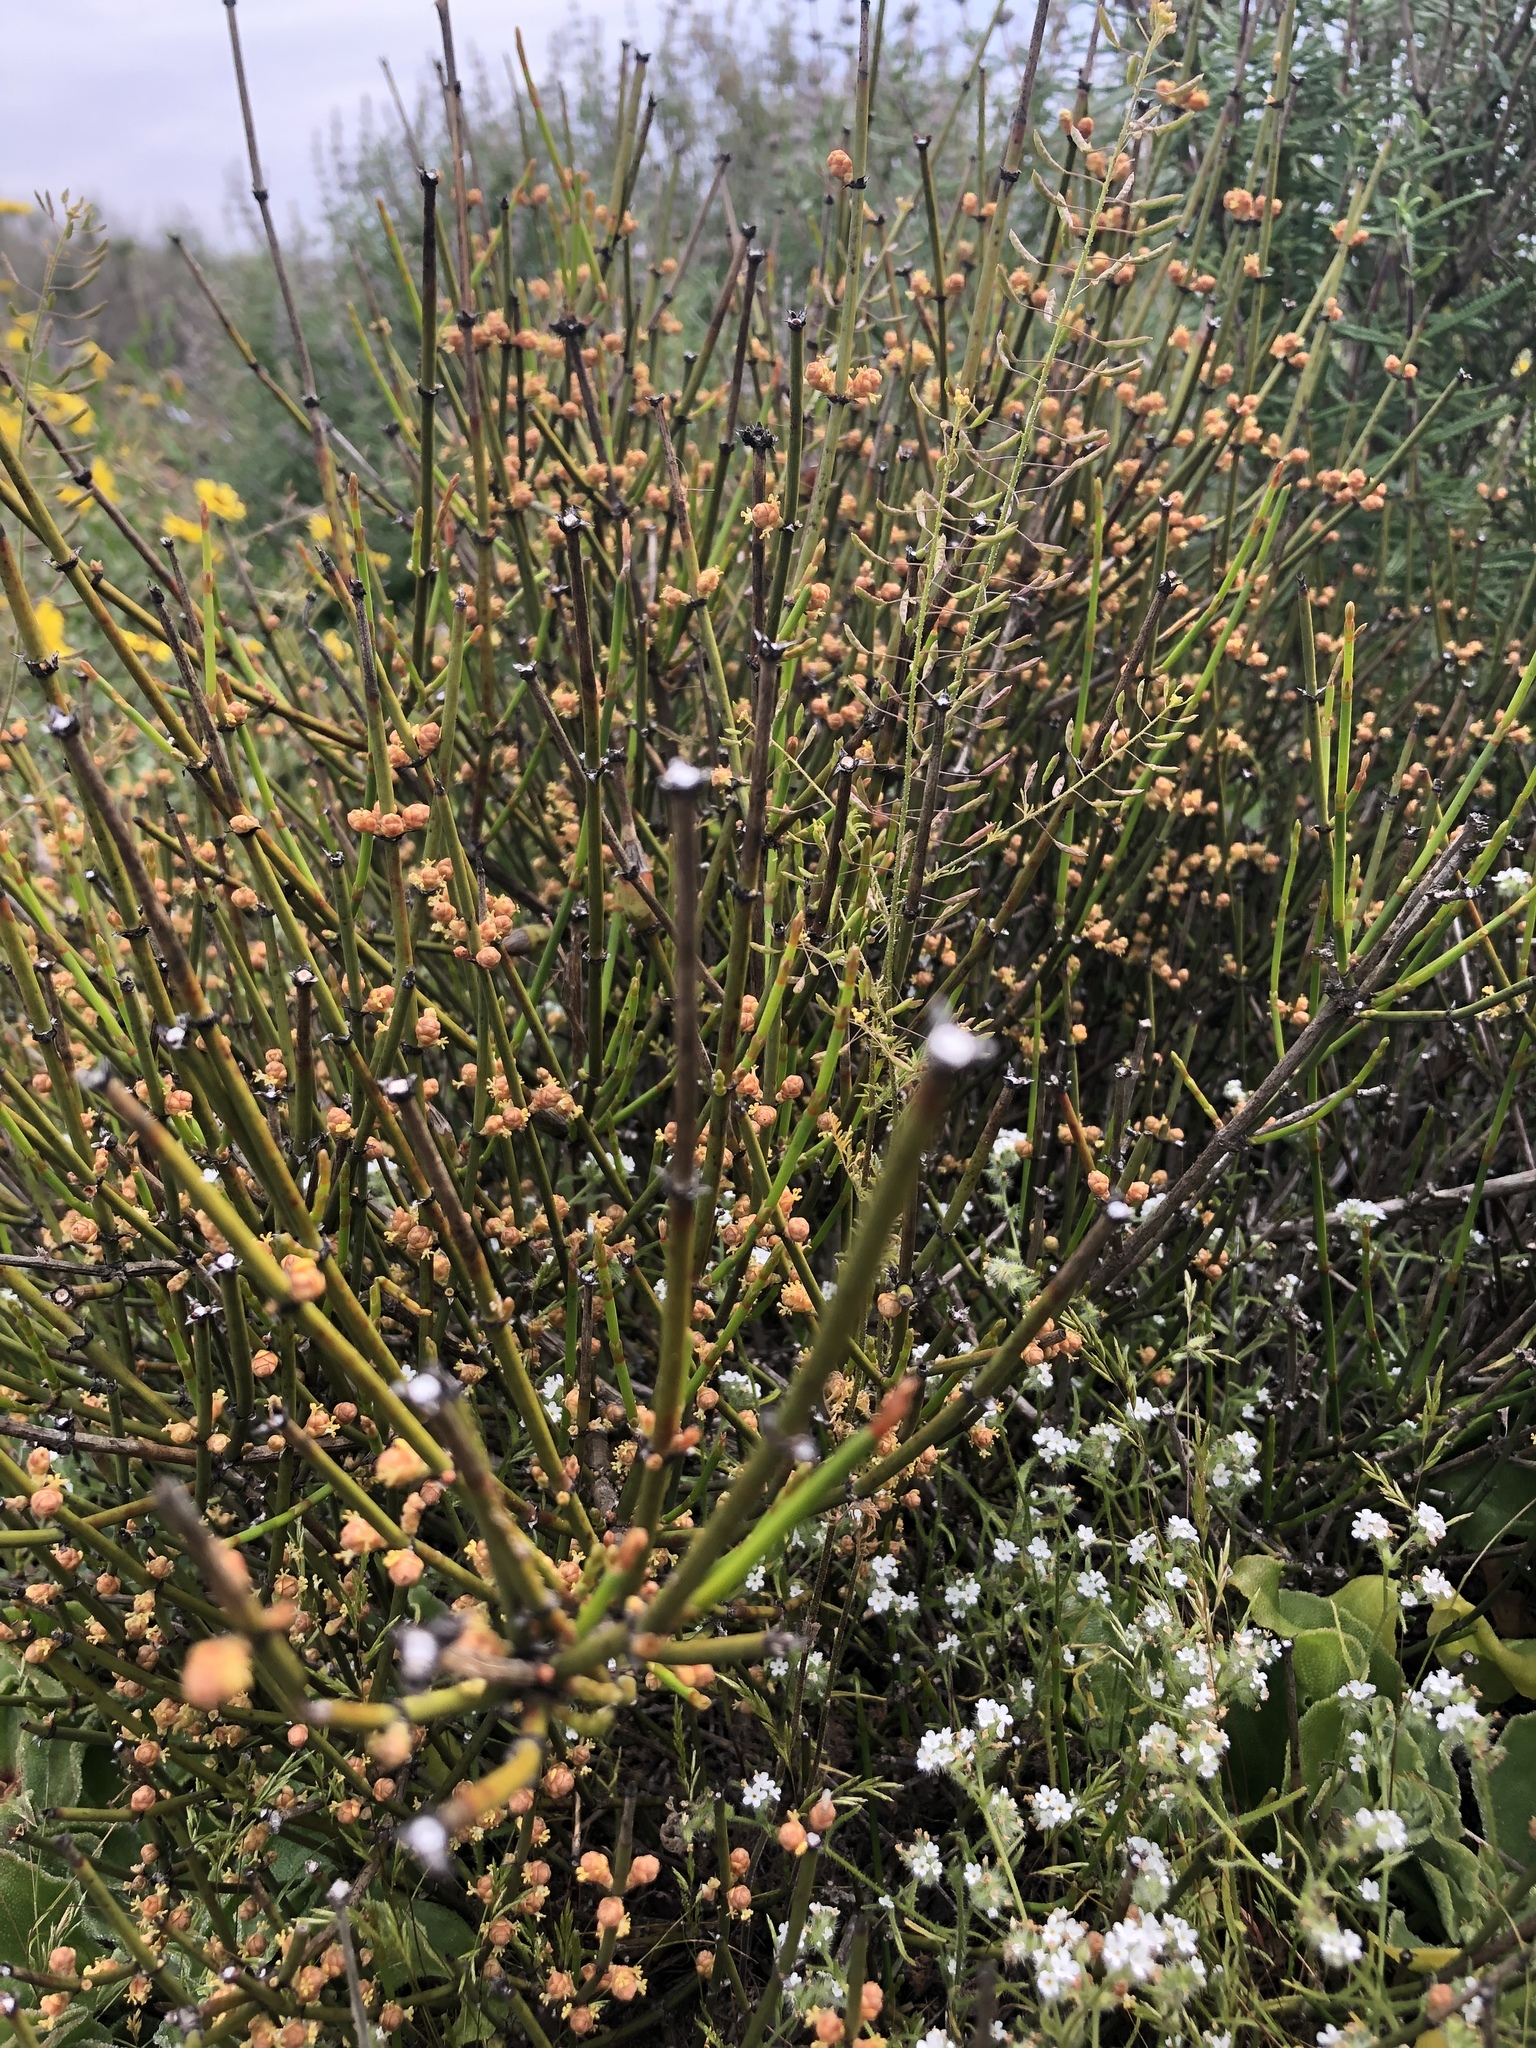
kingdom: Plantae
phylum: Tracheophyta
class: Gnetopsida
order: Ephedrales
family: Ephedraceae
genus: Ephedra
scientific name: Ephedra californica
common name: California ephedra
